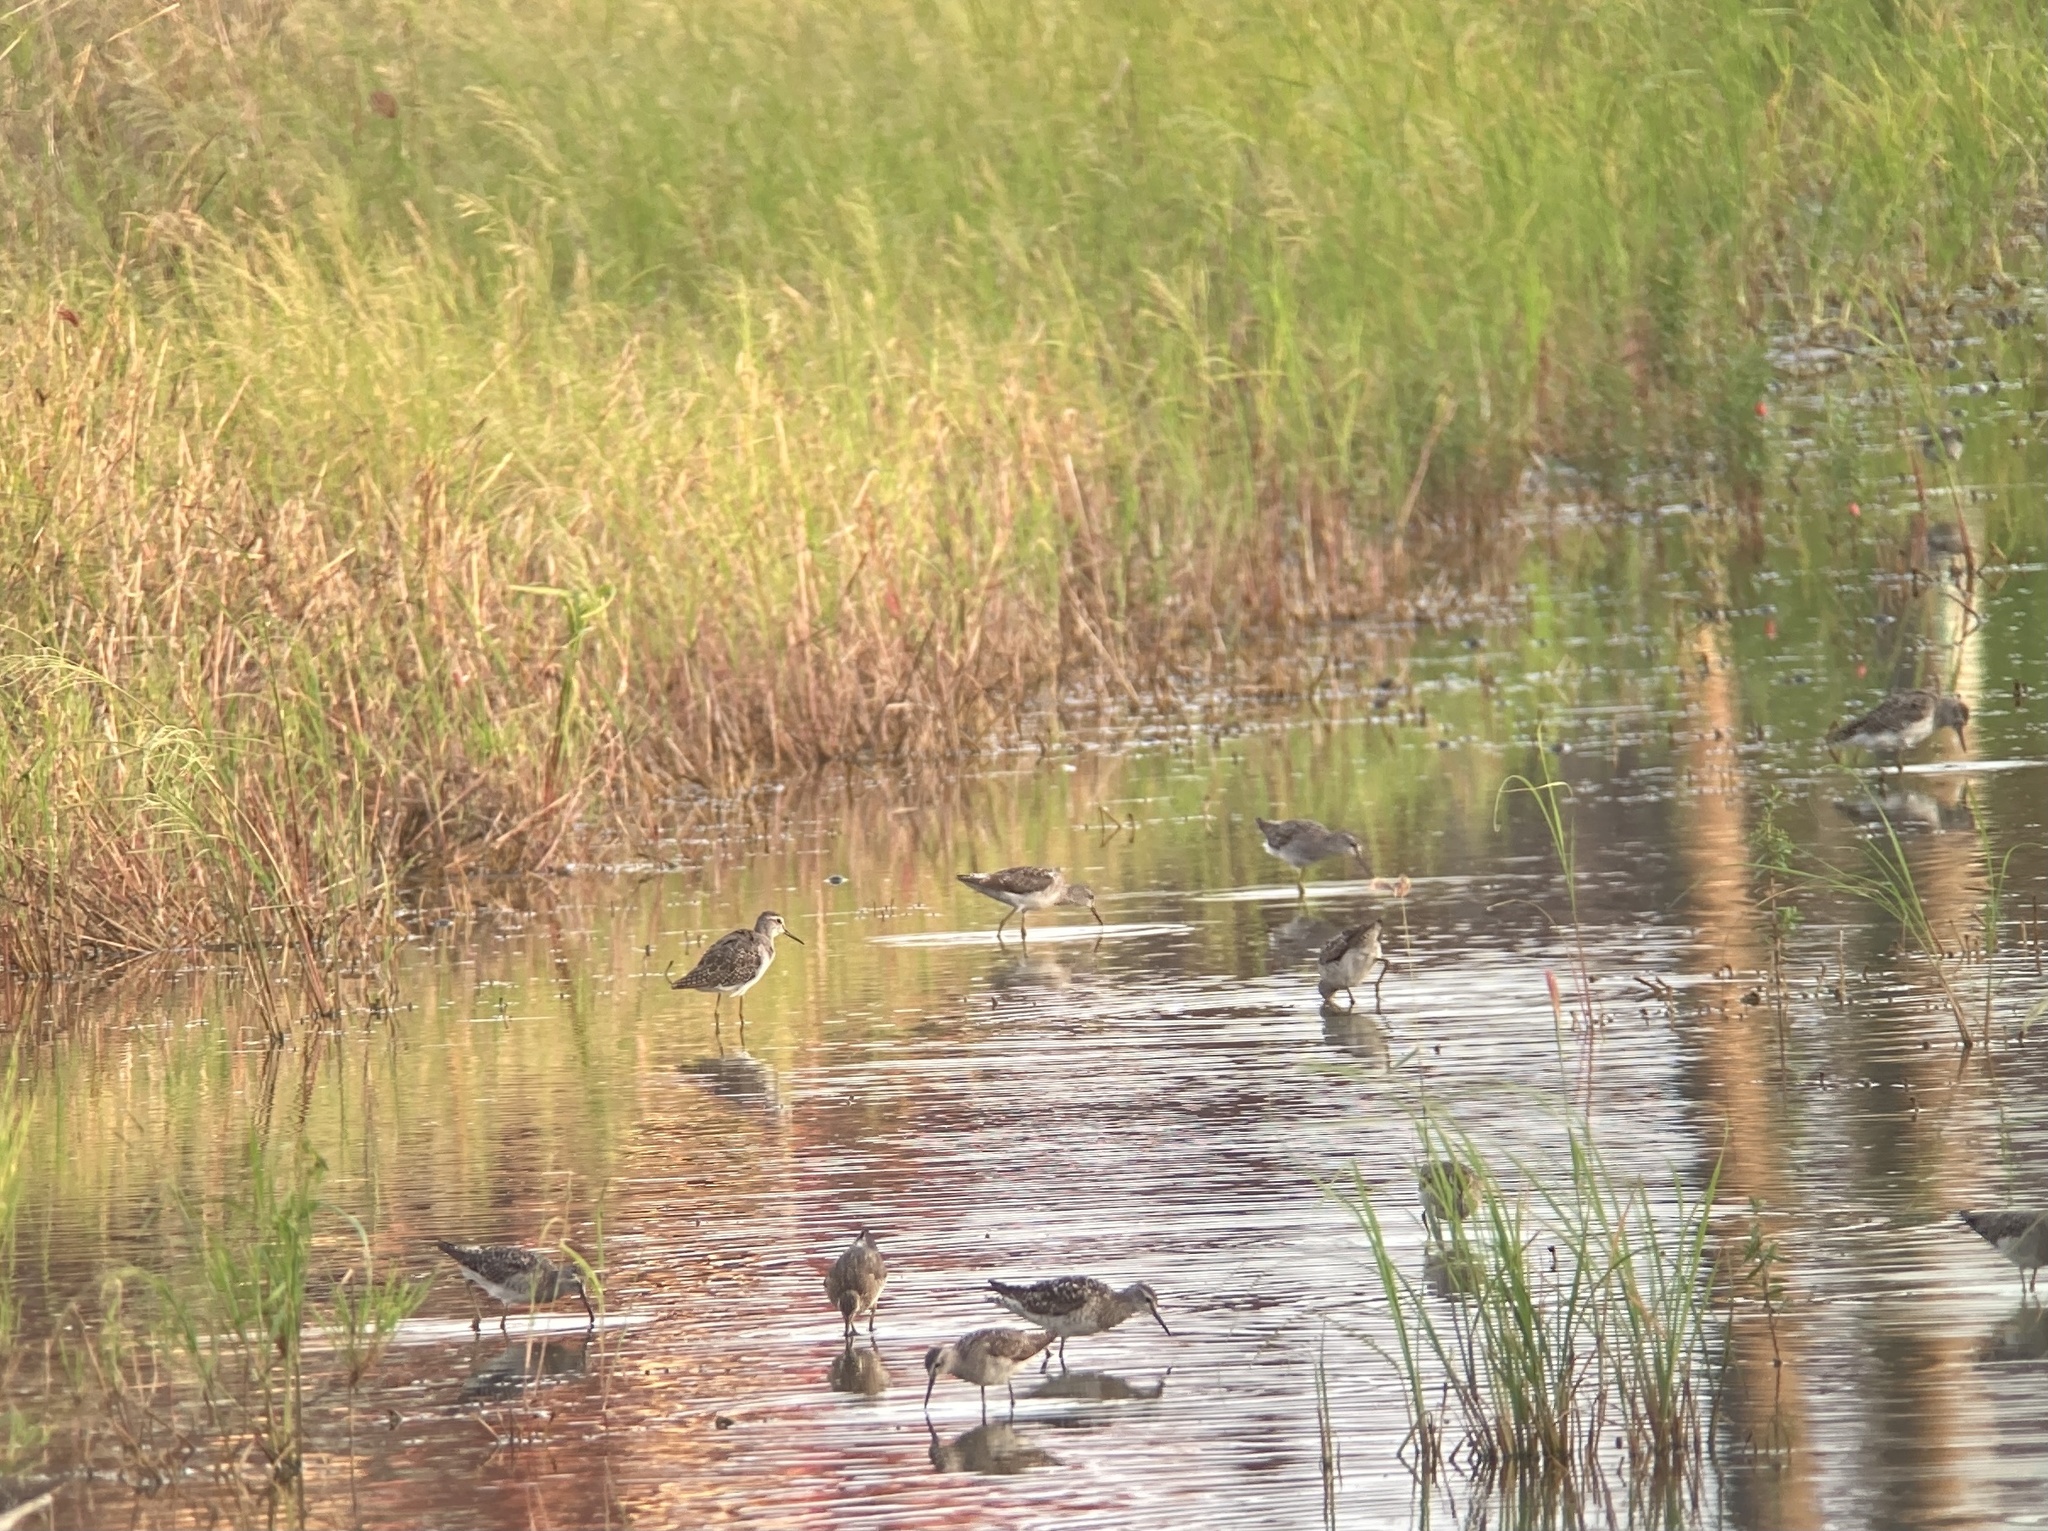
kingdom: Animalia
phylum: Chordata
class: Aves
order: Charadriiformes
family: Scolopacidae
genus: Tringa
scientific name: Tringa glareola
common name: Wood sandpiper
